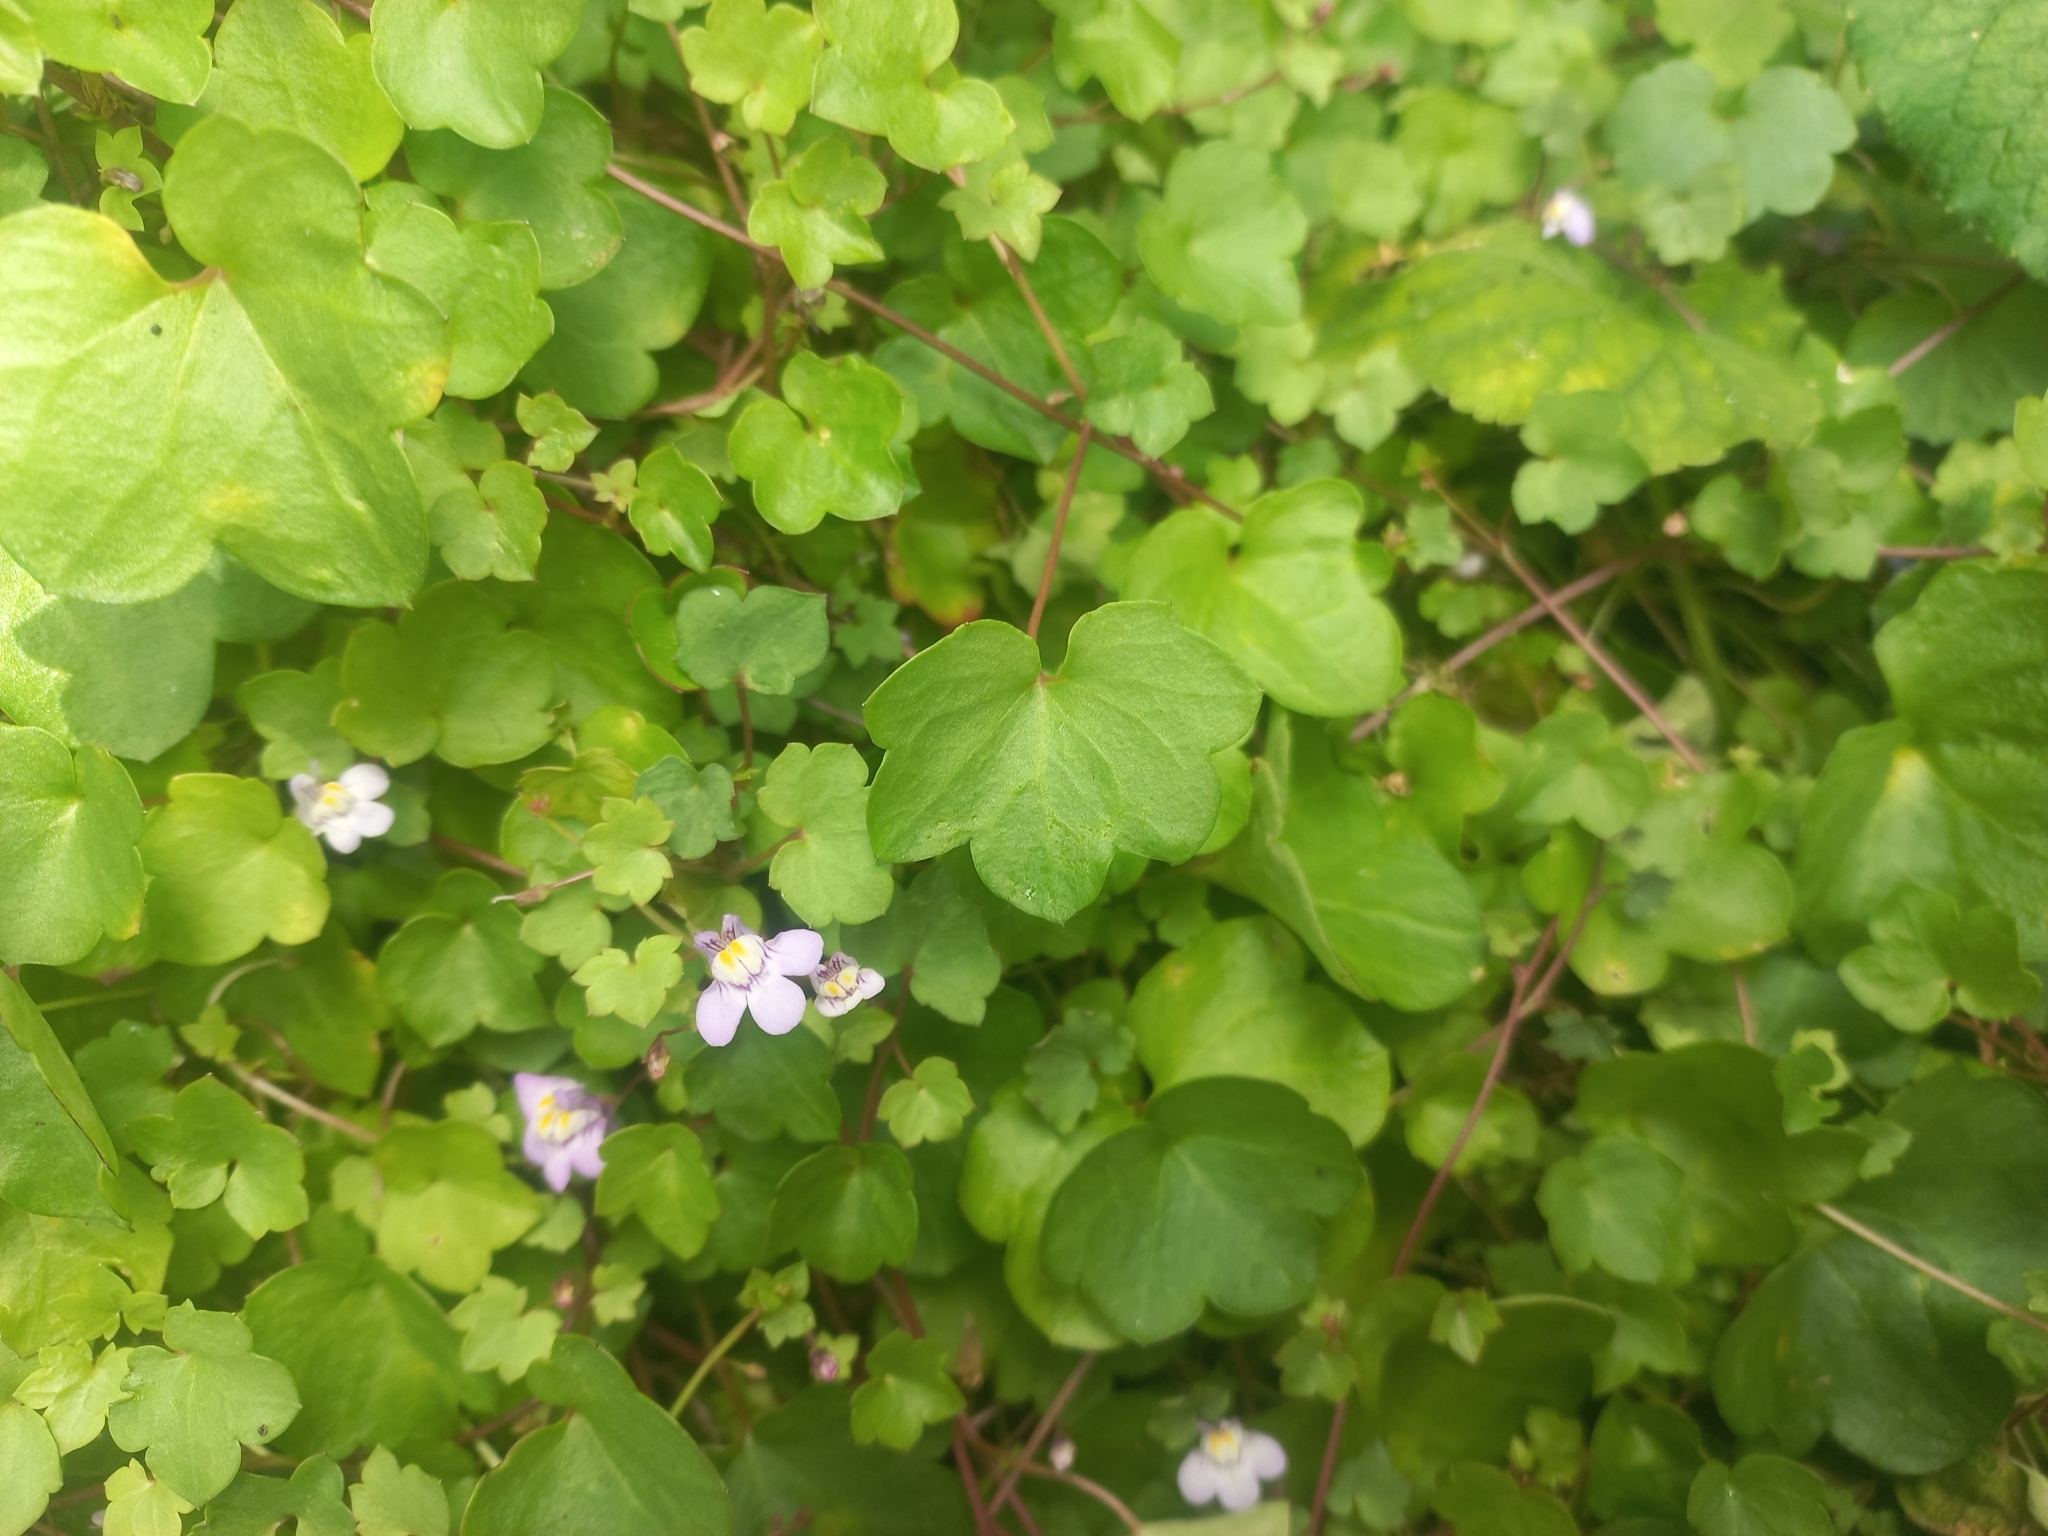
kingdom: Plantae
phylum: Tracheophyta
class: Magnoliopsida
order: Lamiales
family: Plantaginaceae
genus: Cymbalaria
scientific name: Cymbalaria muralis
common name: Ivy-leaved toadflax
